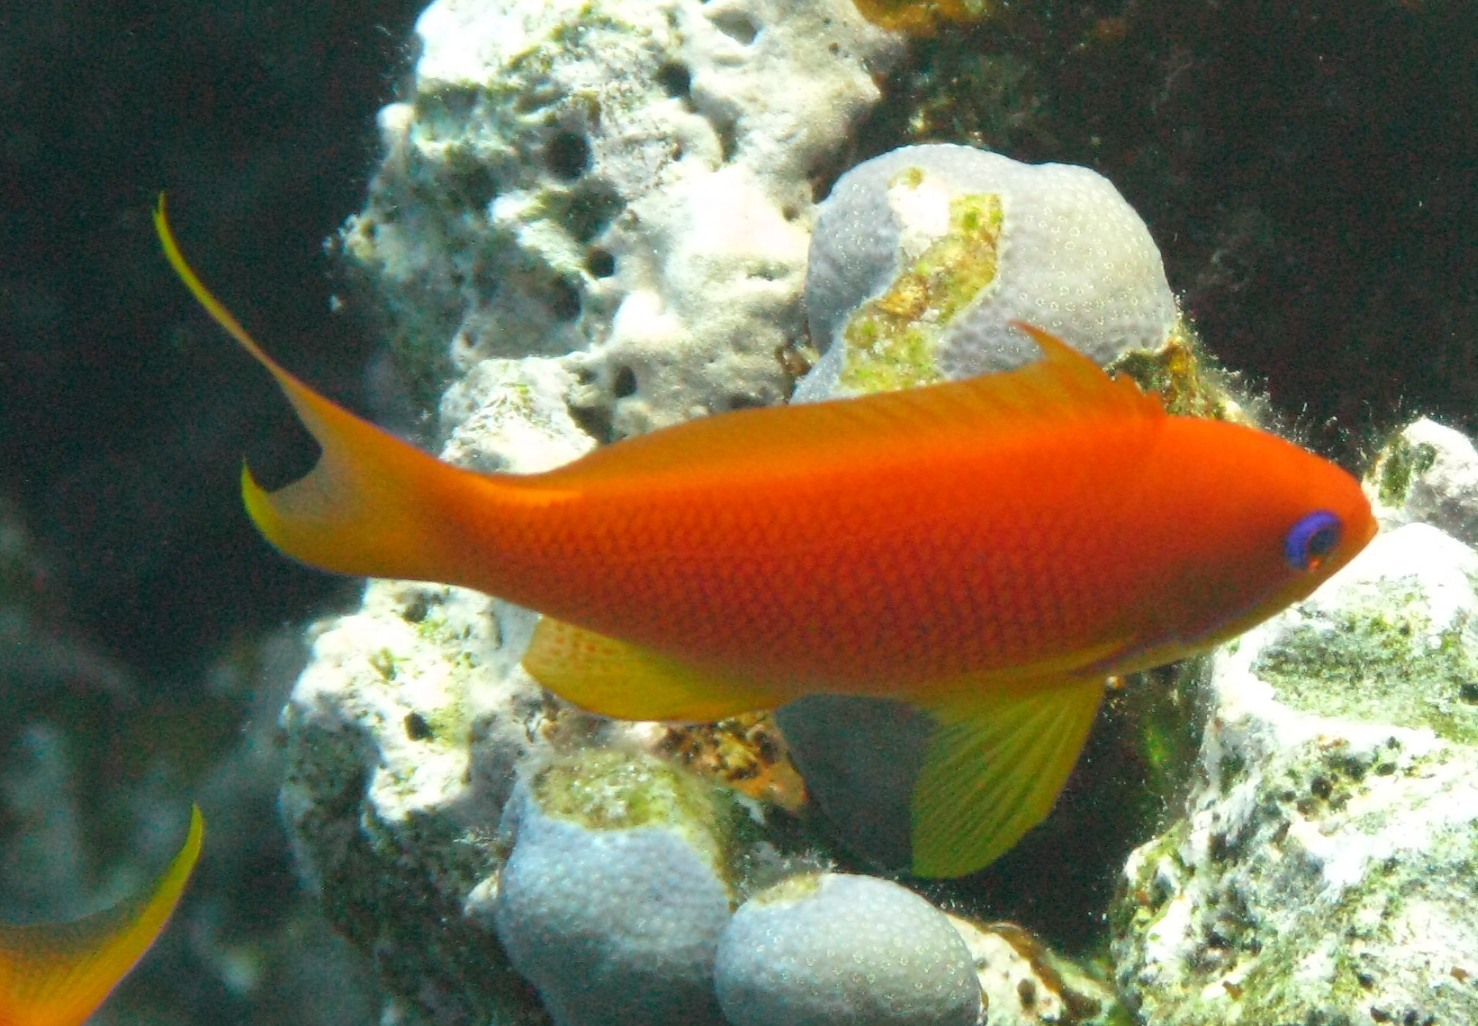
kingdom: Animalia
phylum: Chordata
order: Perciformes
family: Serranidae
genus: Pseudanthias
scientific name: Pseudanthias squamipinnis
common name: Scalefin anthias
